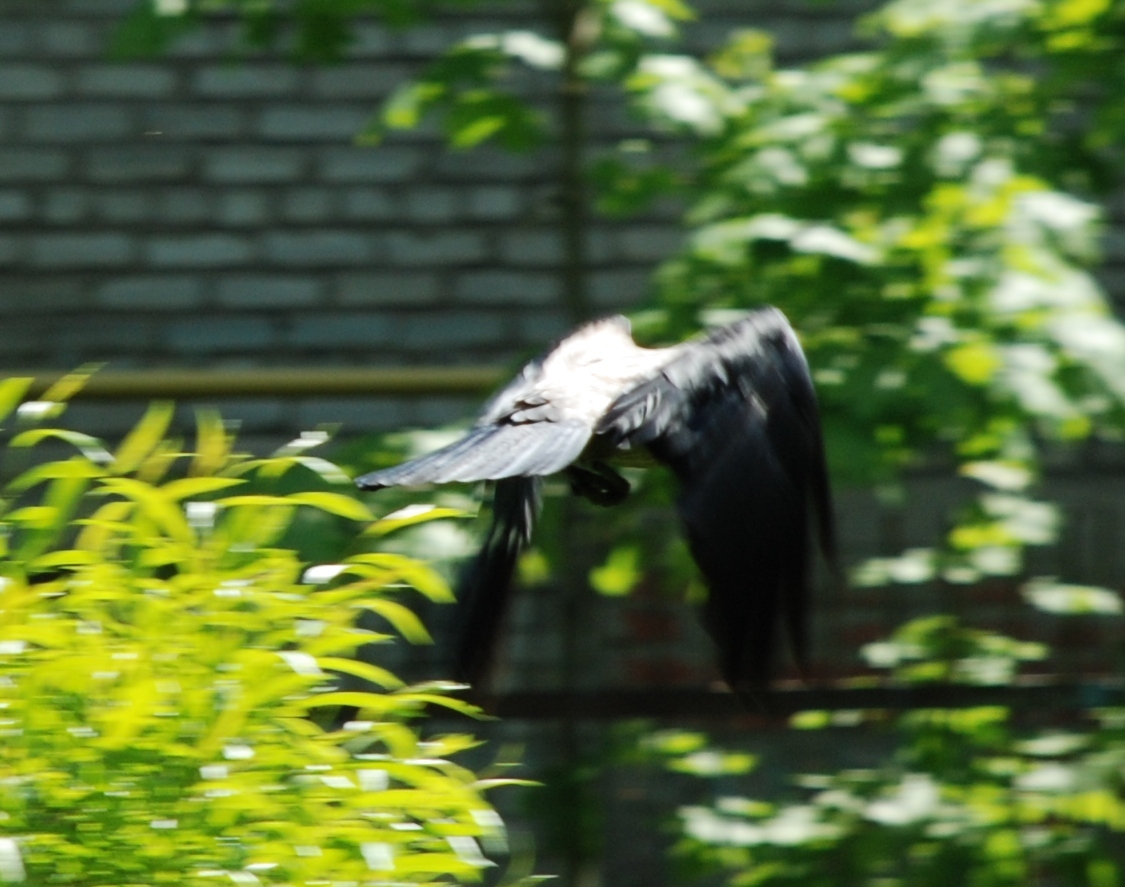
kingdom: Animalia
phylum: Chordata
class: Aves
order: Passeriformes
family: Corvidae
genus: Corvus
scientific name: Corvus cornix
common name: Hooded crow
